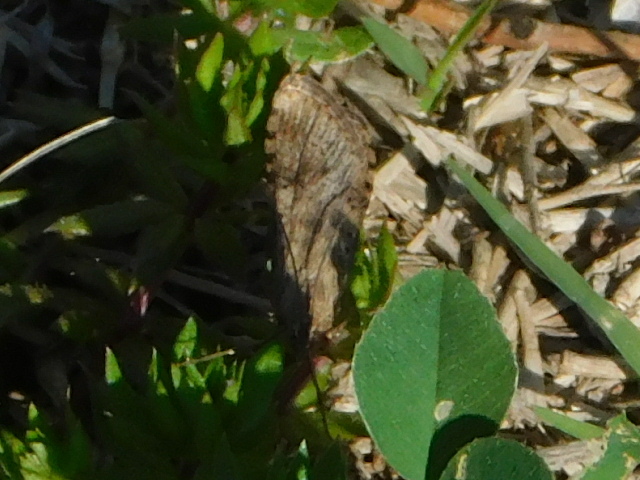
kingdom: Animalia
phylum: Arthropoda
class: Insecta
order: Lepidoptera
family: Crambidae
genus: Nomophila
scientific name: Nomophila nearctica
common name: American rush veneer
